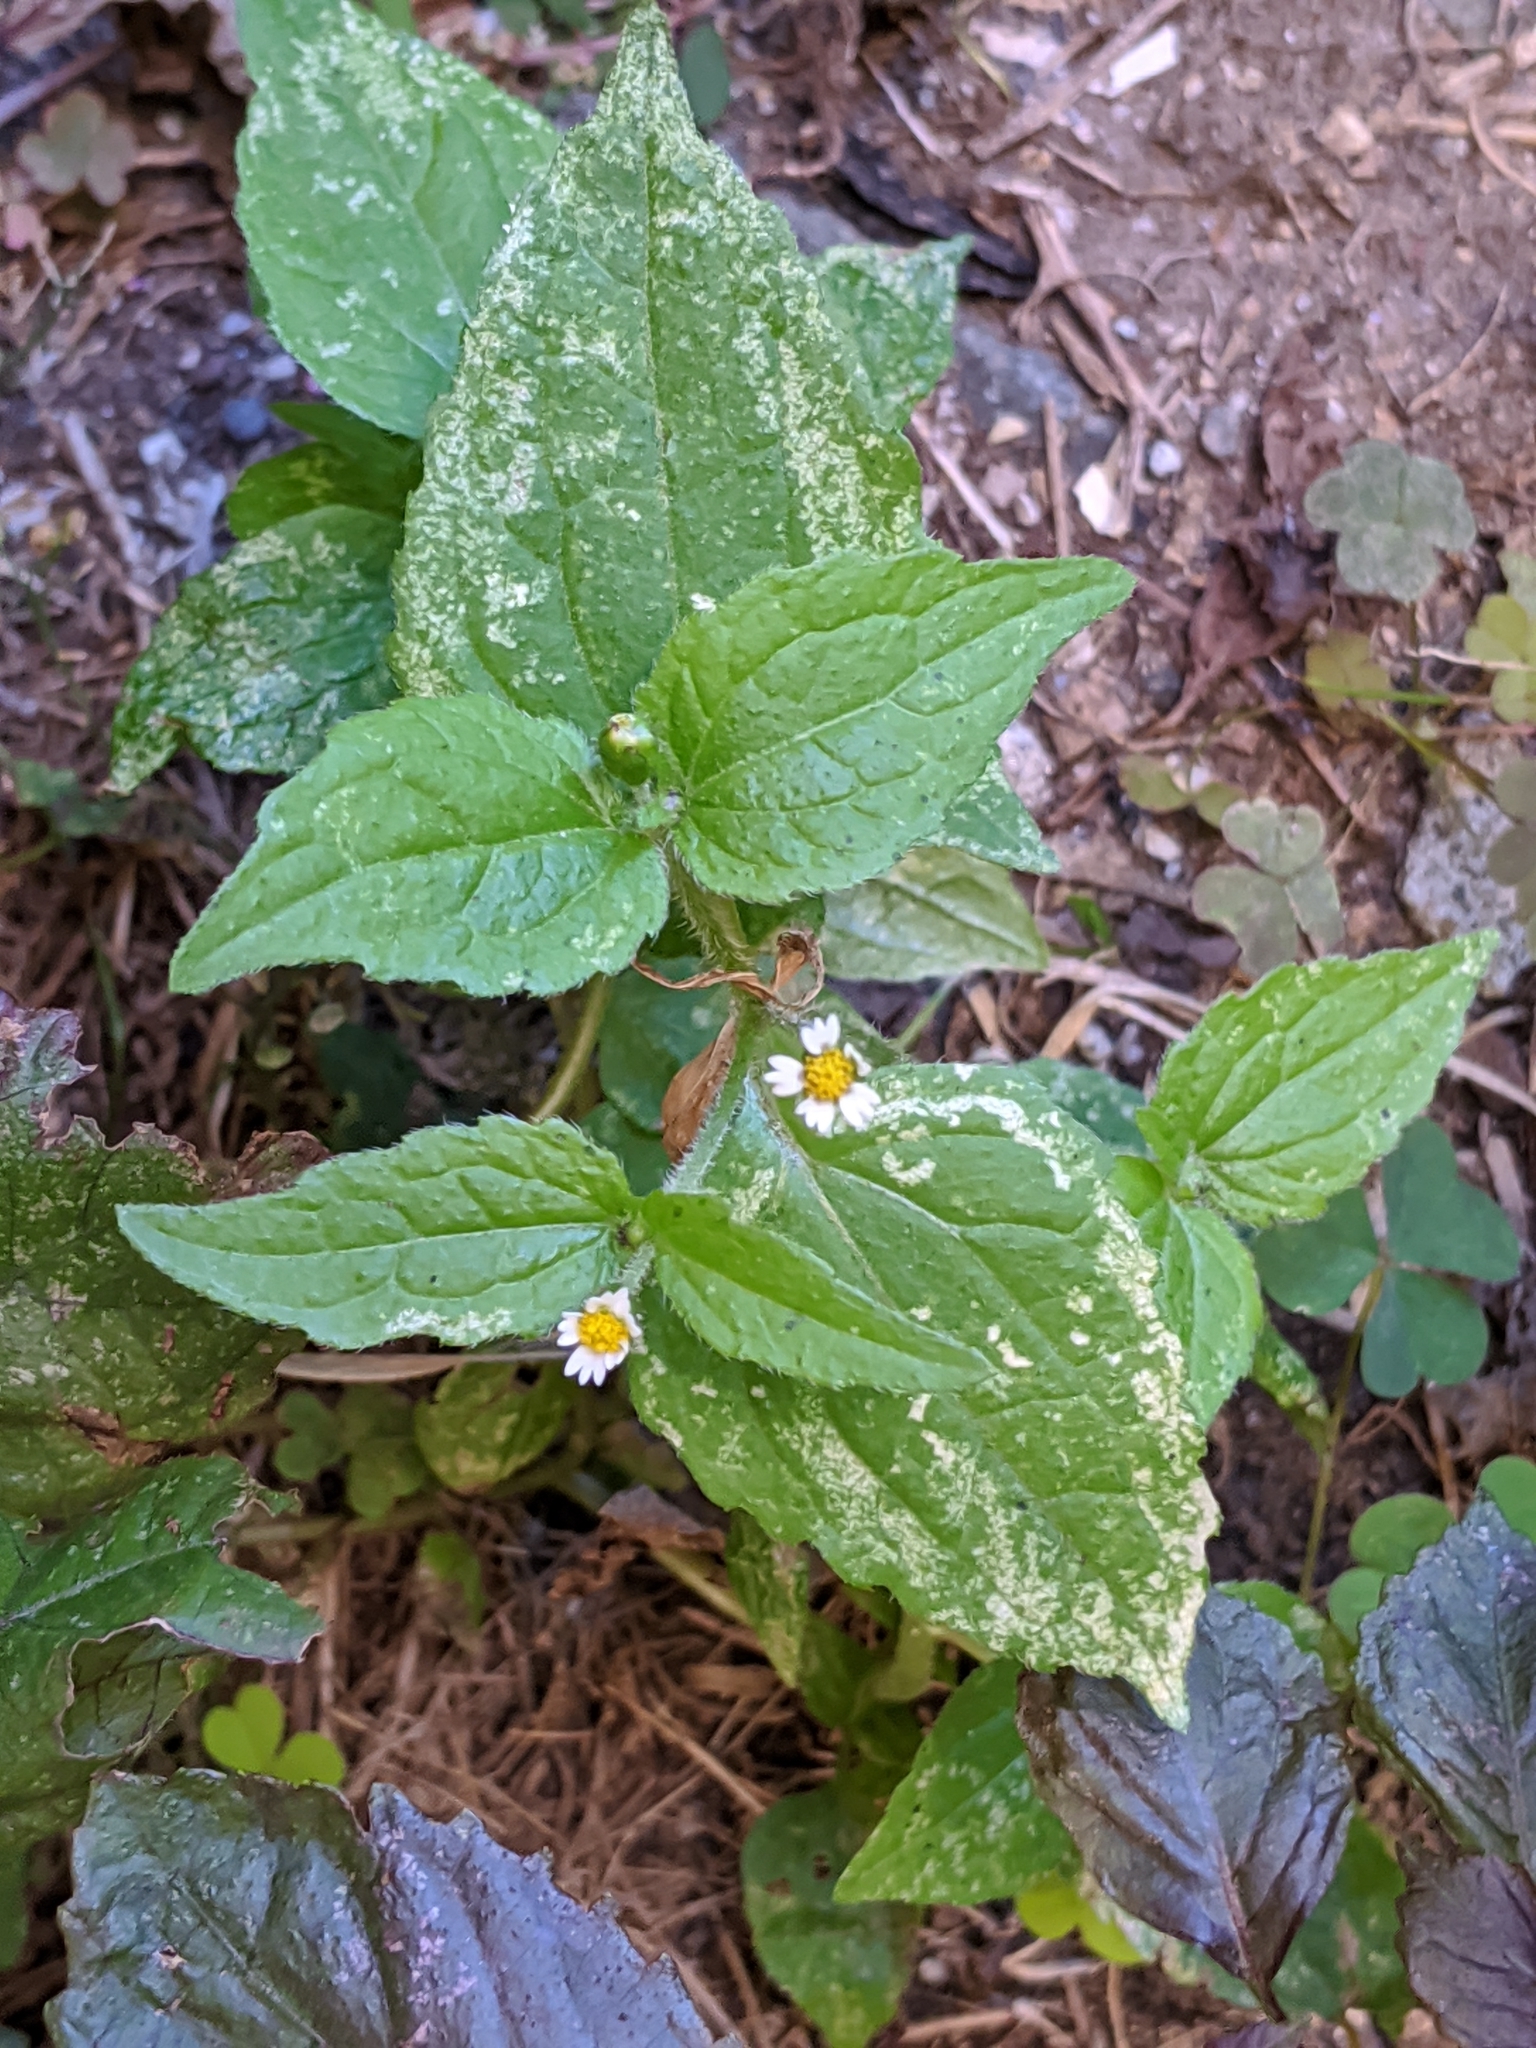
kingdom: Plantae
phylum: Tracheophyta
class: Magnoliopsida
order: Asterales
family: Asteraceae
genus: Galinsoga
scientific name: Galinsoga quadriradiata
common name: Shaggy soldier
